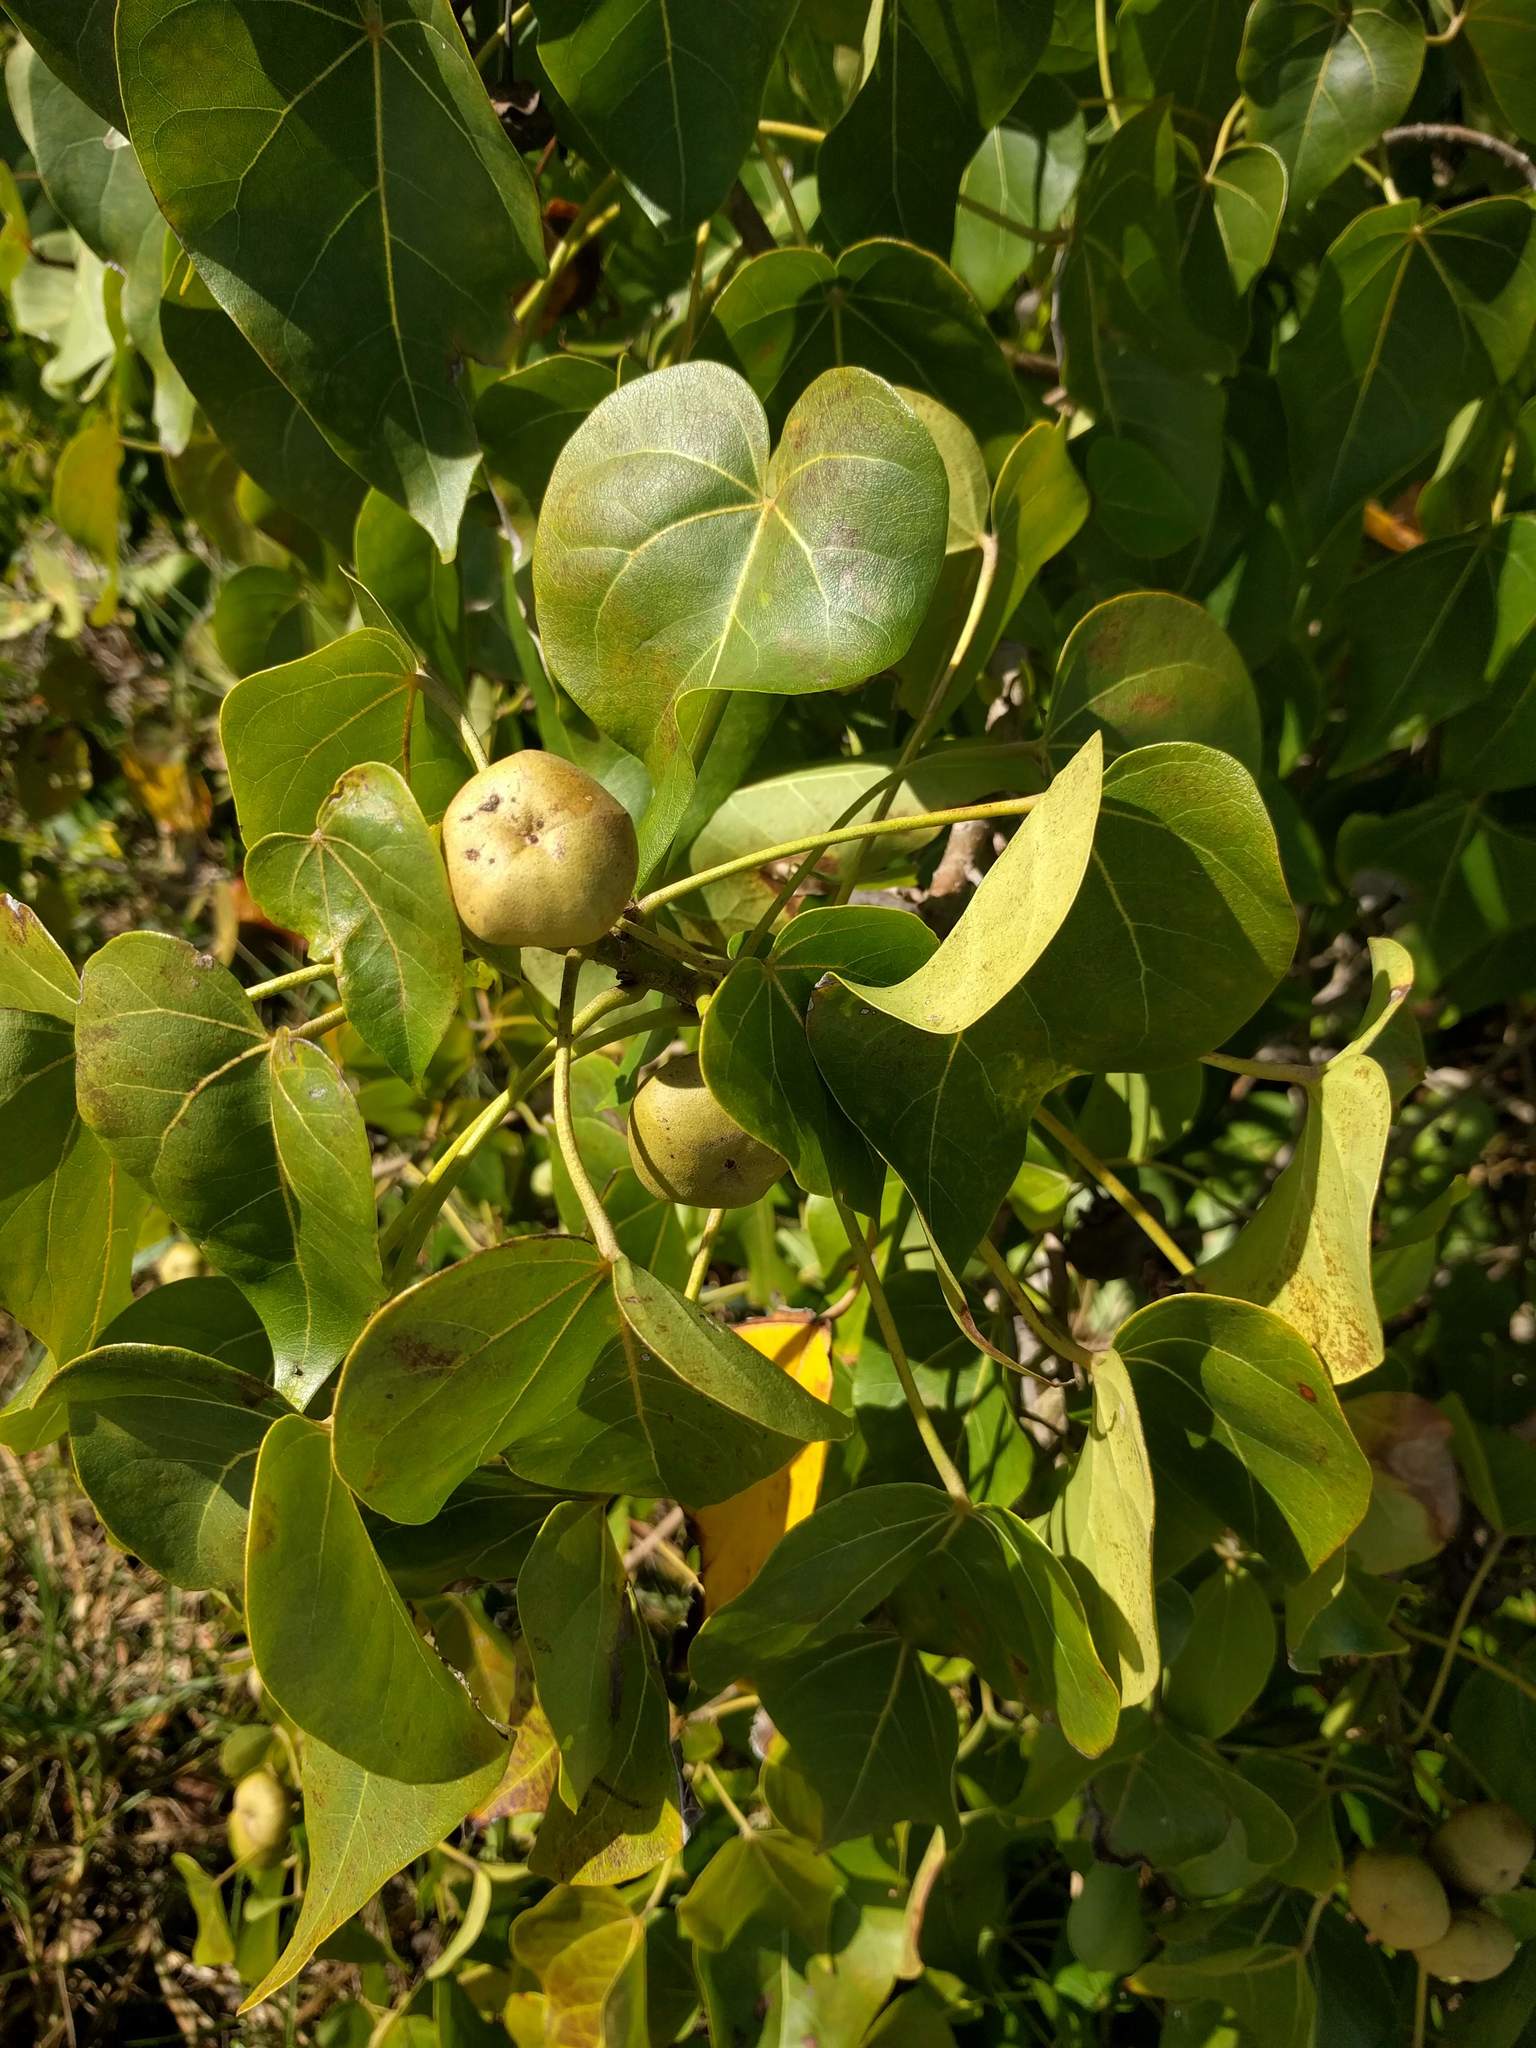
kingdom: Plantae
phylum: Tracheophyta
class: Magnoliopsida
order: Malvales
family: Malvaceae
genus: Thespesia
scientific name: Thespesia populnea
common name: Seaside mahoe
